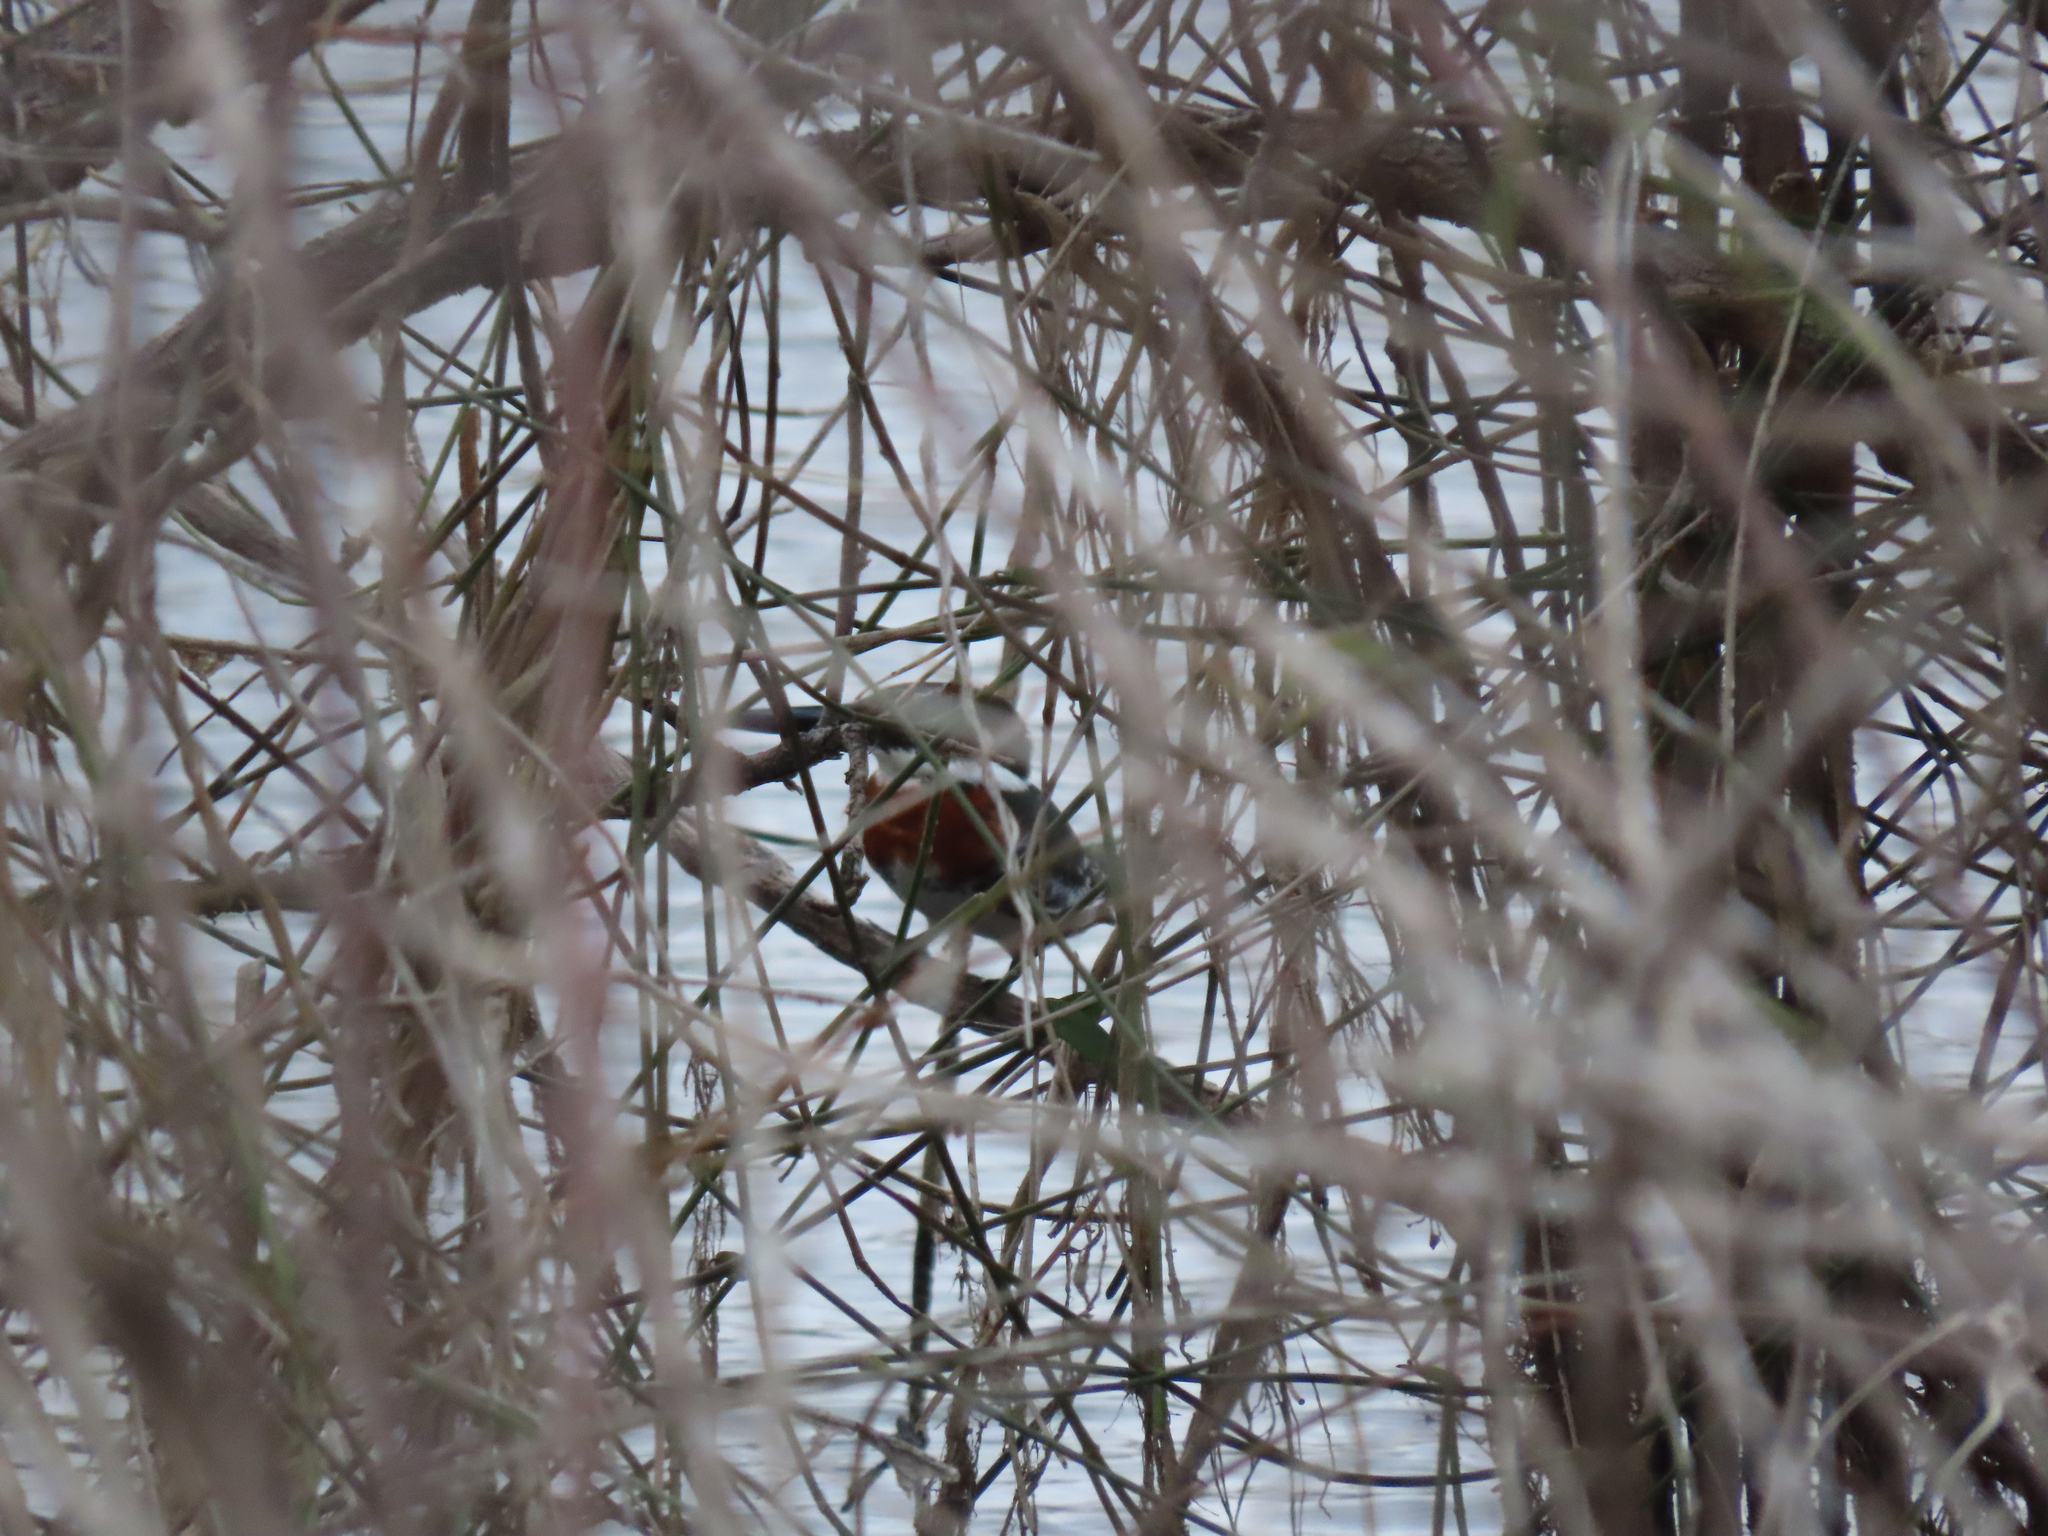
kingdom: Animalia
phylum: Chordata
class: Aves
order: Coraciiformes
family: Alcedinidae
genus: Chloroceryle
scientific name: Chloroceryle americana
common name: Green kingfisher
